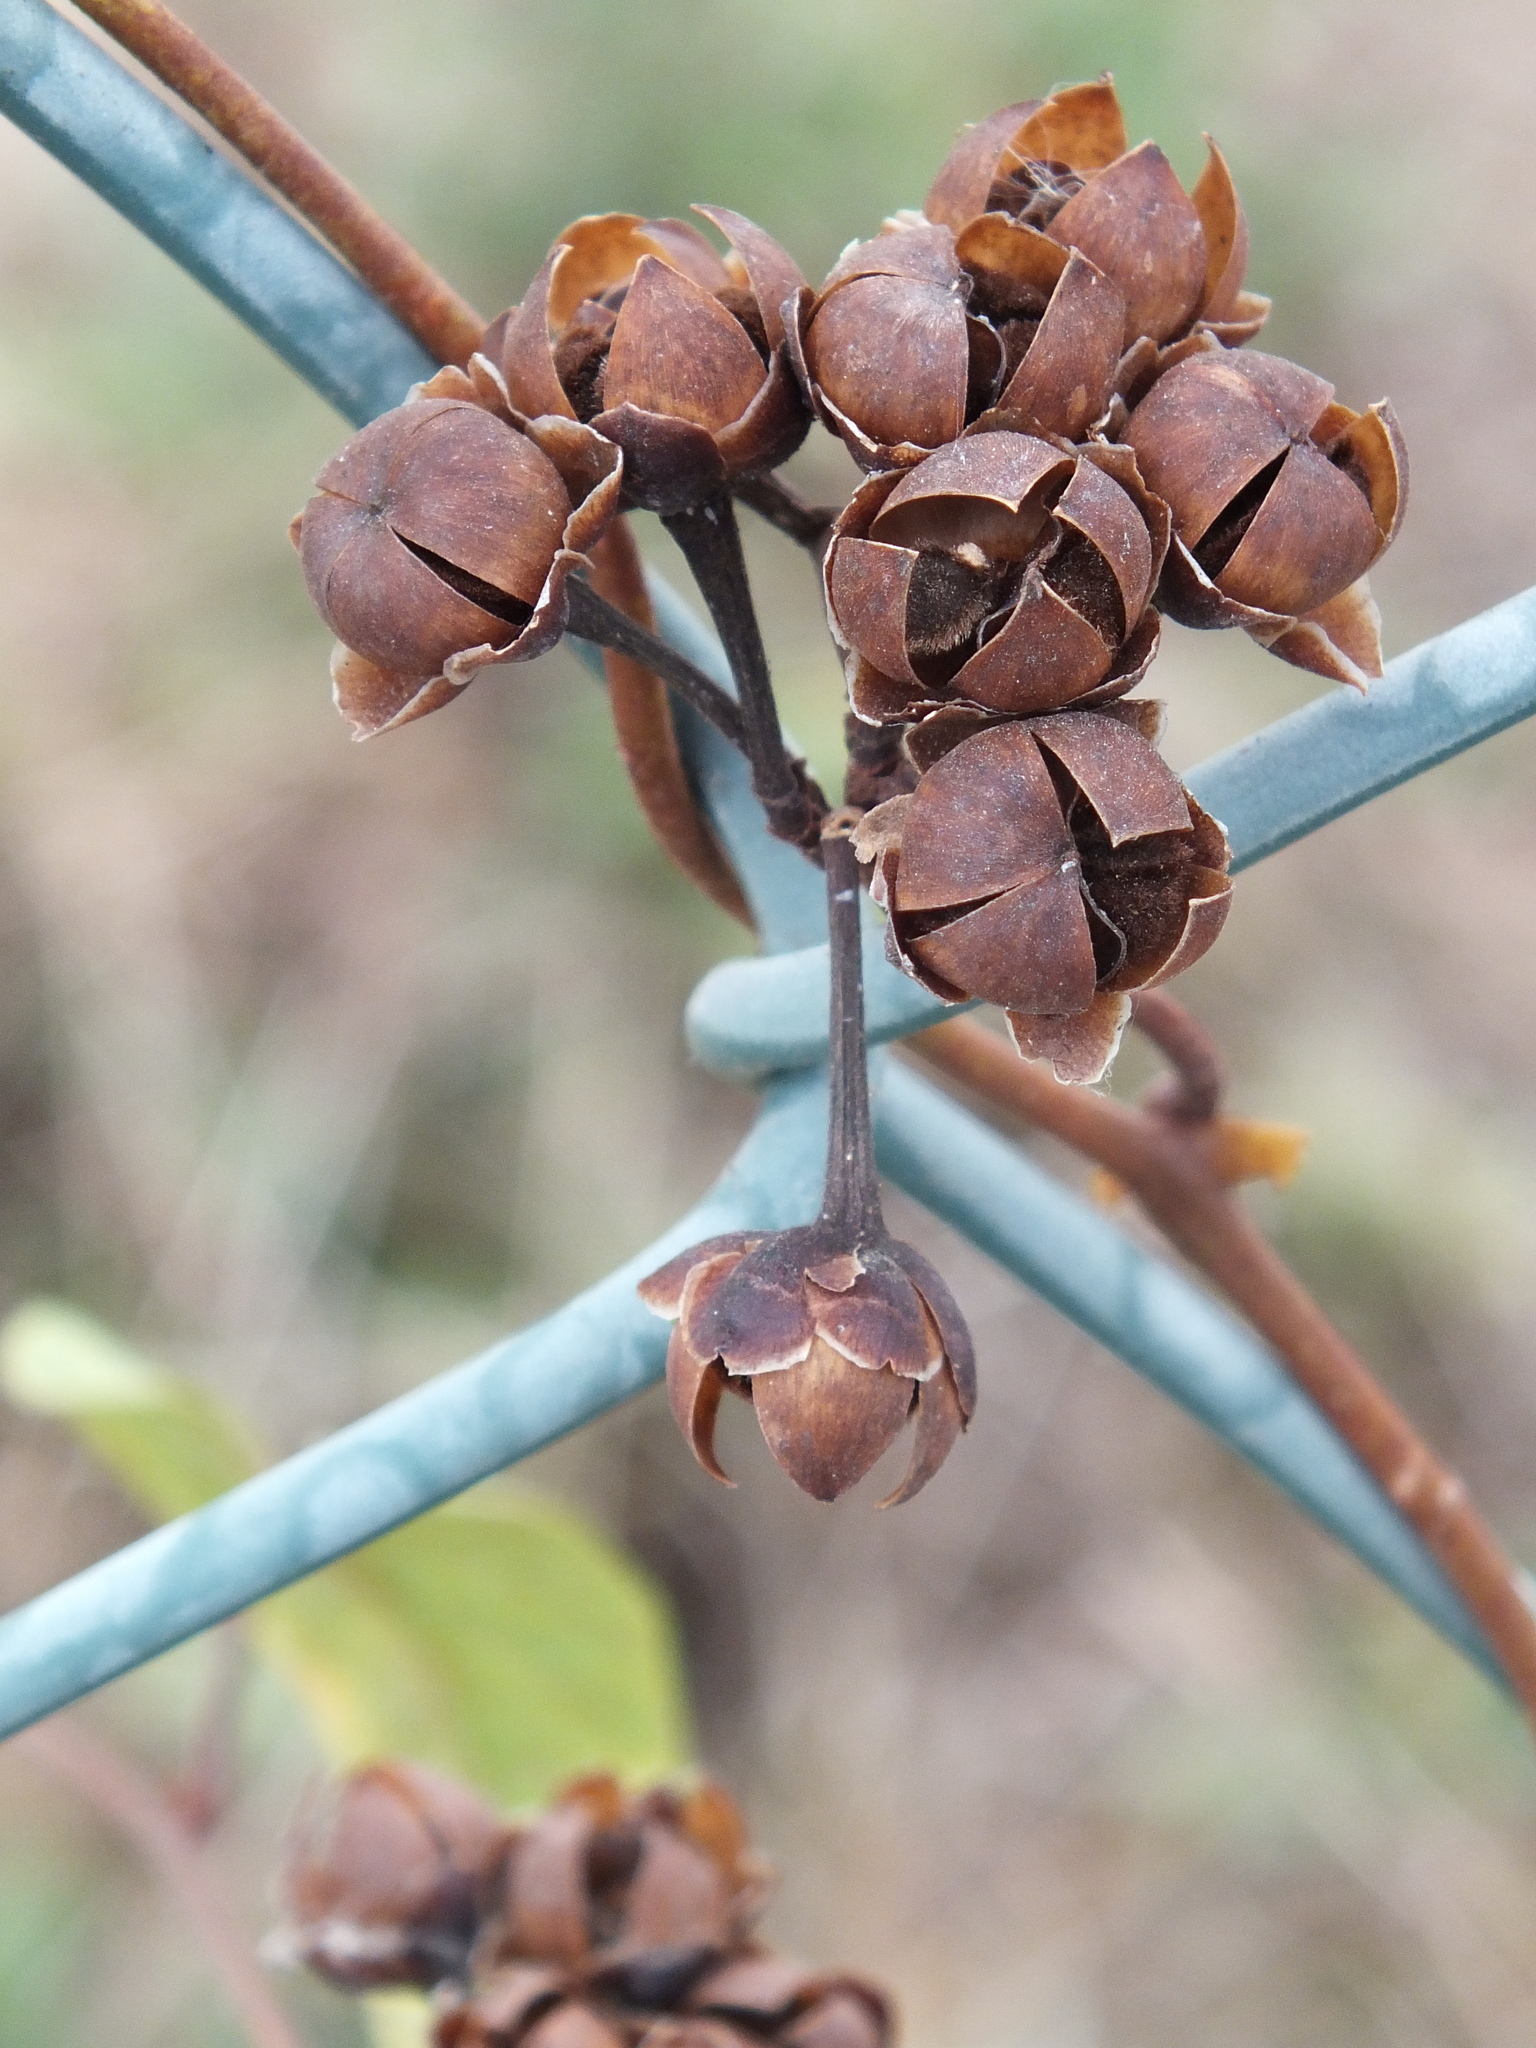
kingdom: Plantae
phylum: Tracheophyta
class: Magnoliopsida
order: Solanales
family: Convolvulaceae
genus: Camonea
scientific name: Camonea umbellata
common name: Hogvine
